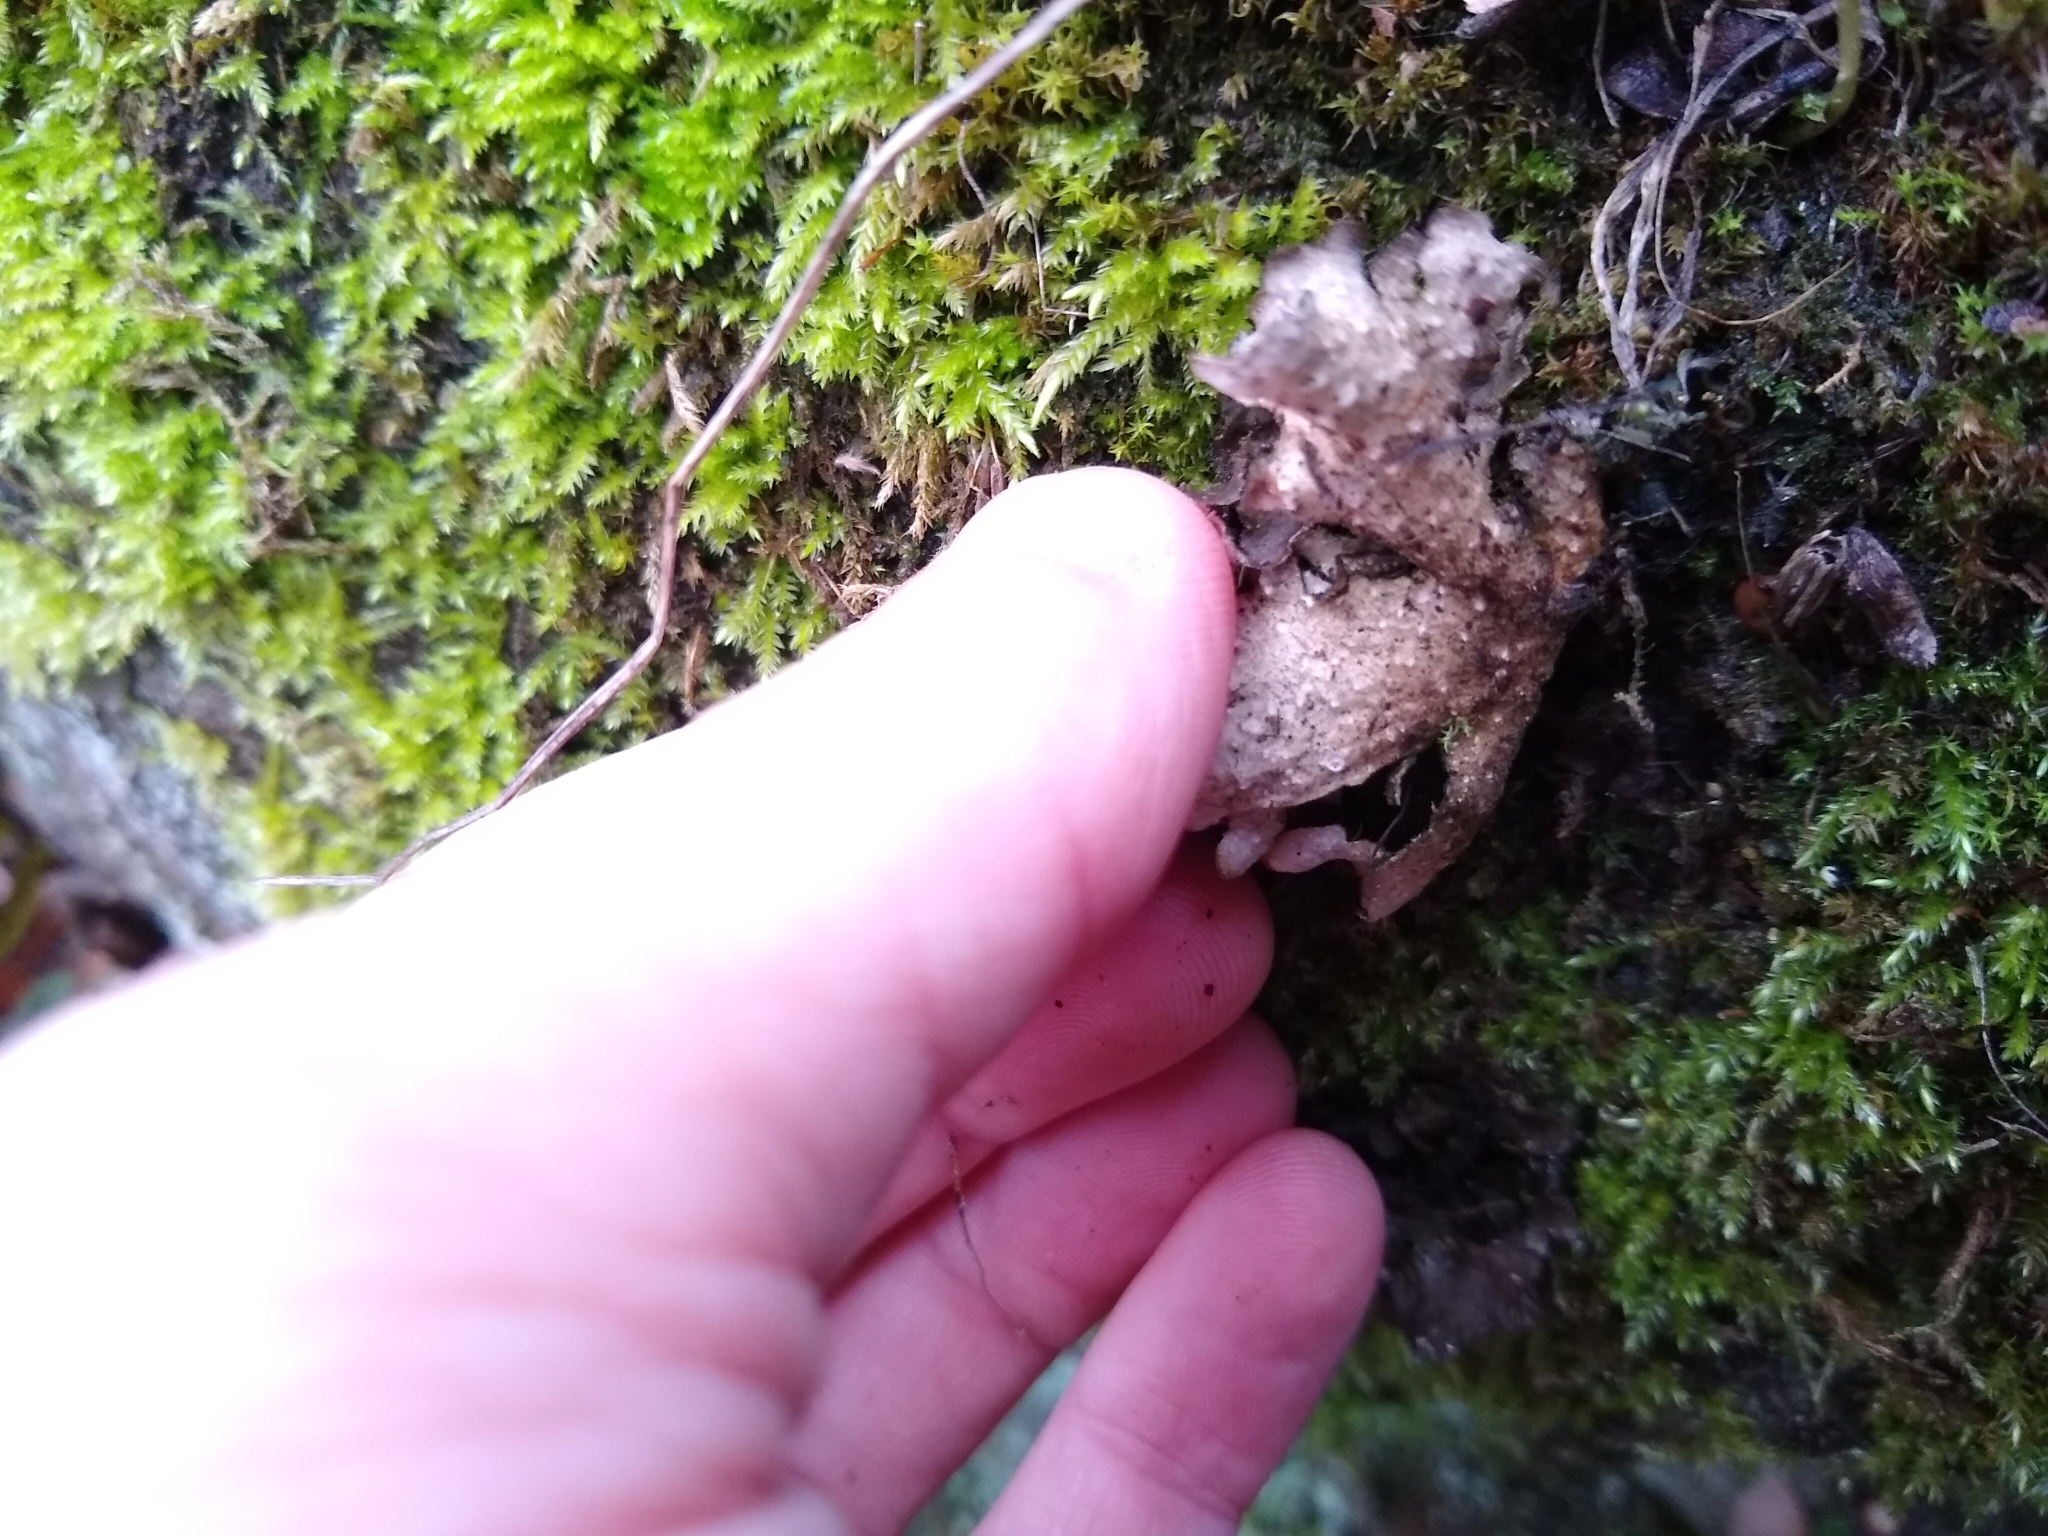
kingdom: Fungi
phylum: Ascomycota
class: Lecanoromycetes
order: Peltigerales
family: Lobariaceae
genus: Sticta
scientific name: Sticta
